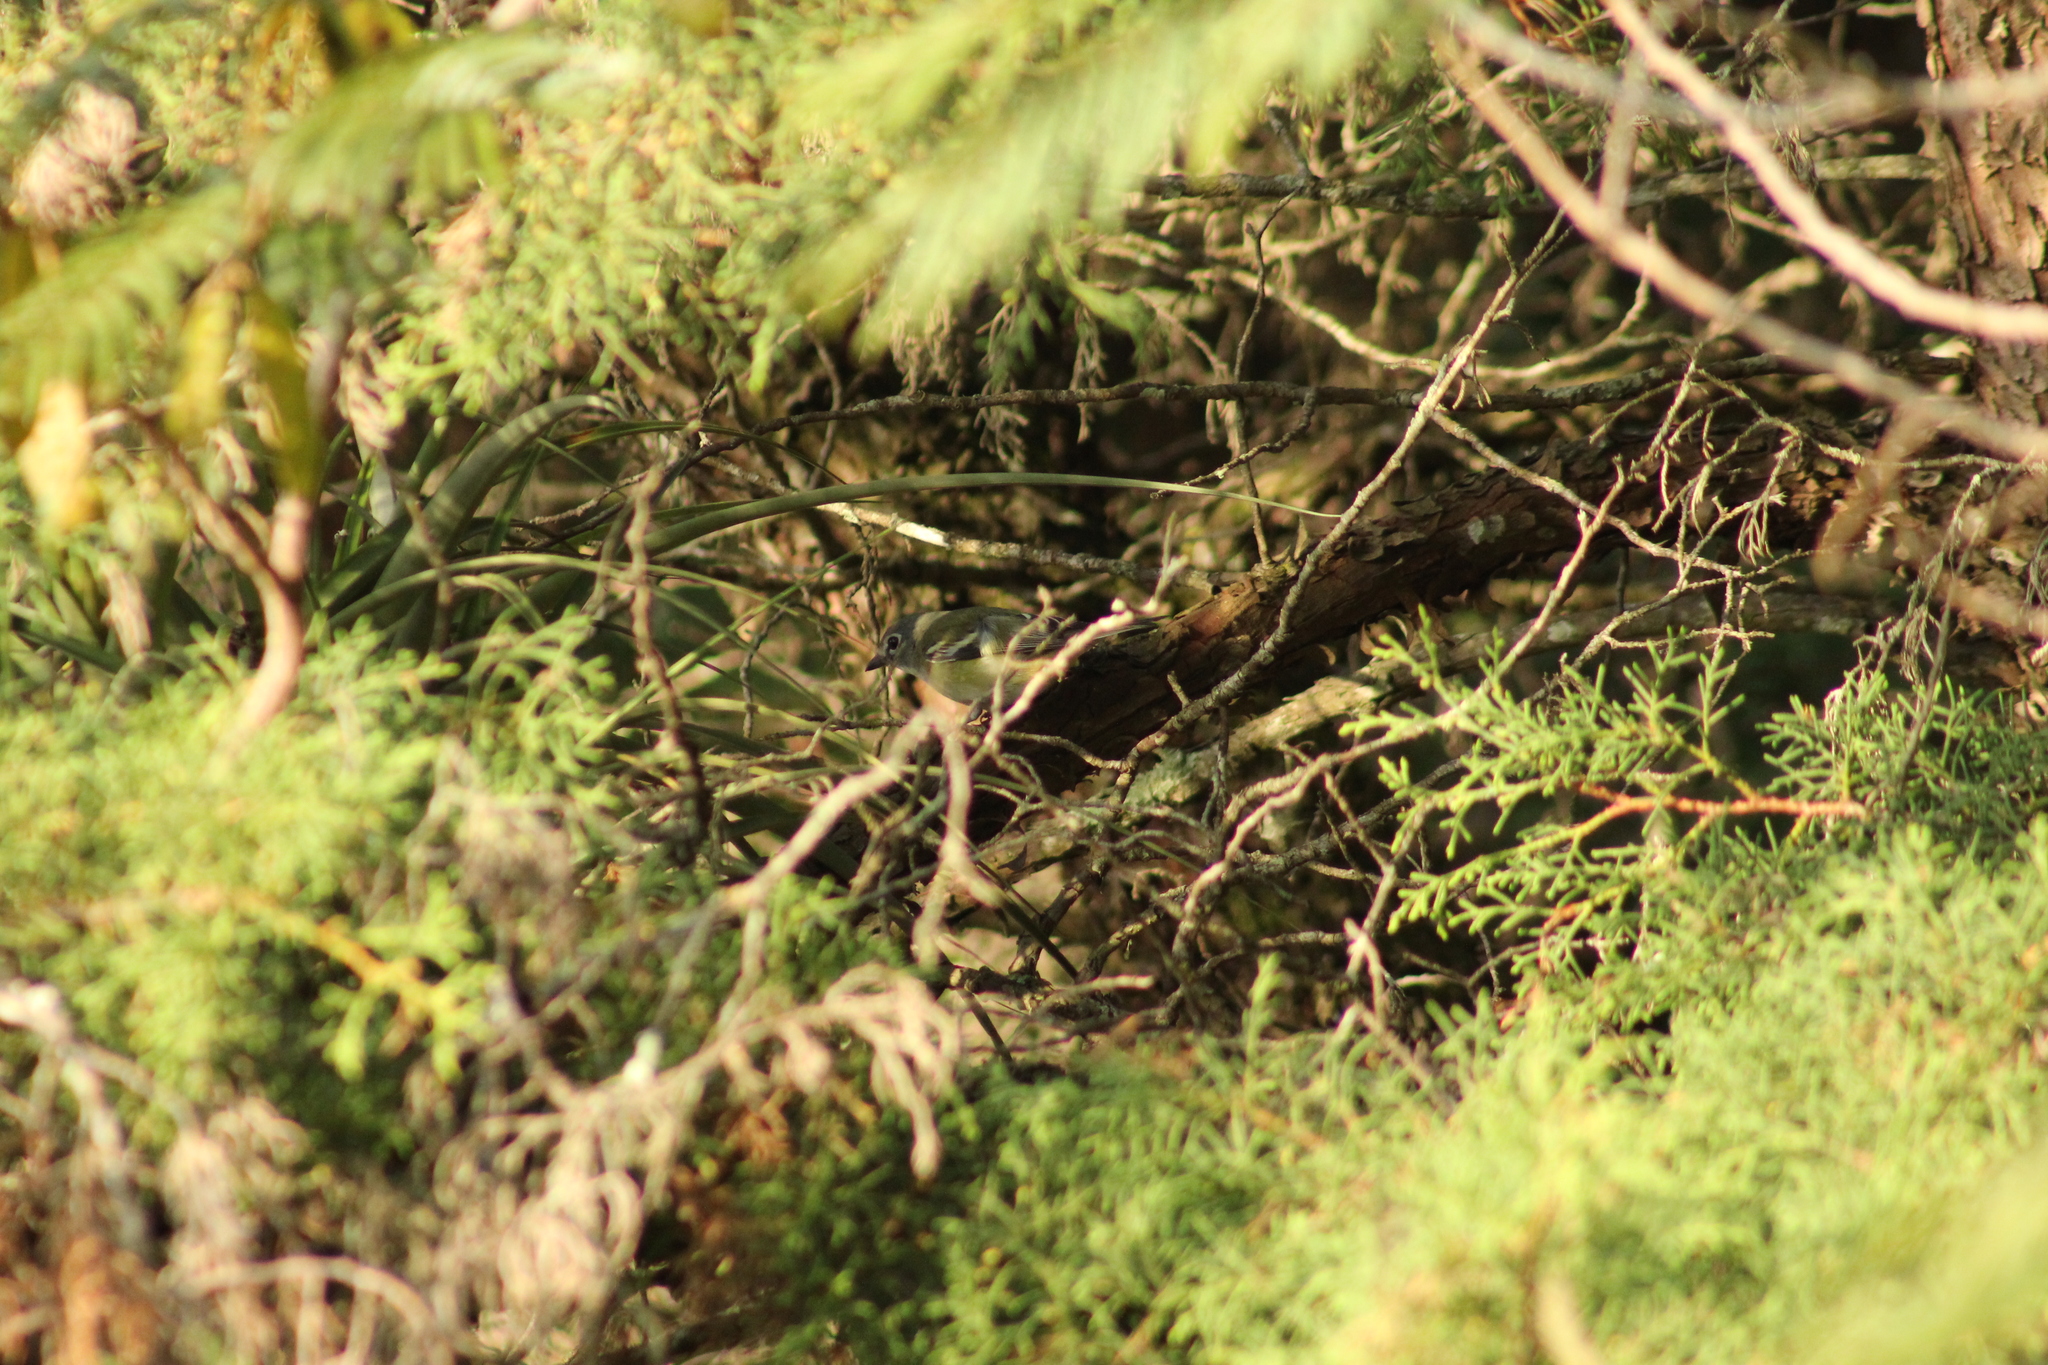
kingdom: Animalia
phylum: Chordata
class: Aves
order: Passeriformes
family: Vireonidae
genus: Vireo
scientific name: Vireo solitarius
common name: Blue-headed vireo
